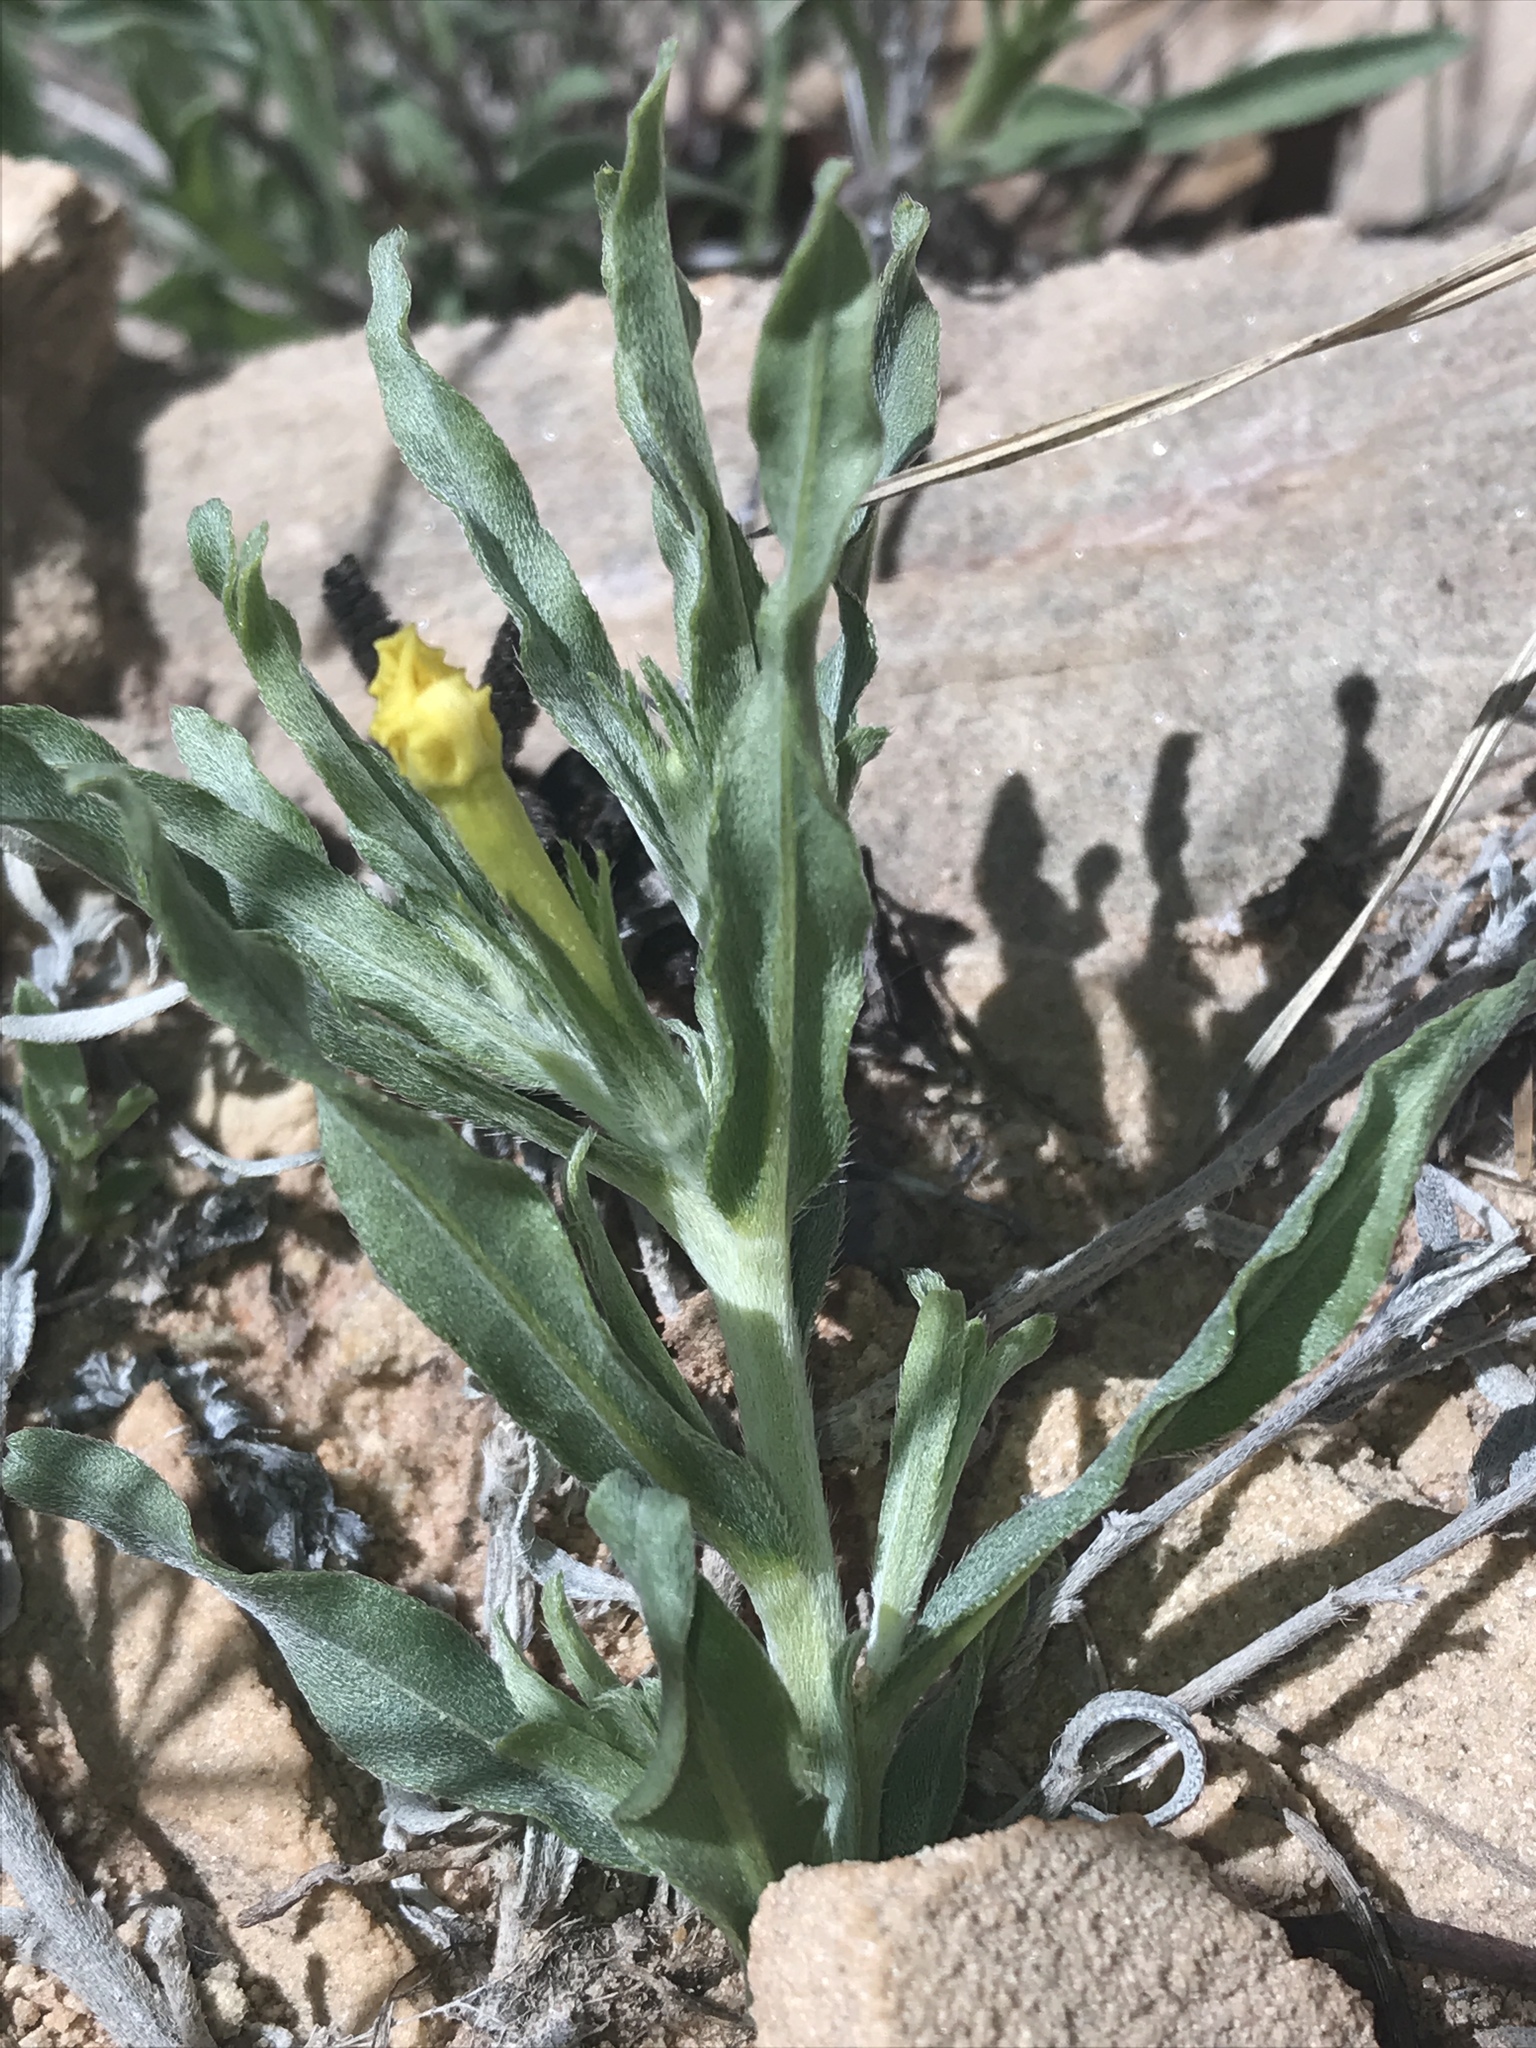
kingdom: Plantae
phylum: Tracheophyta
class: Magnoliopsida
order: Boraginales
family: Boraginaceae
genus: Lithospermum
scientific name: Lithospermum incisum
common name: Fringed gromwell
